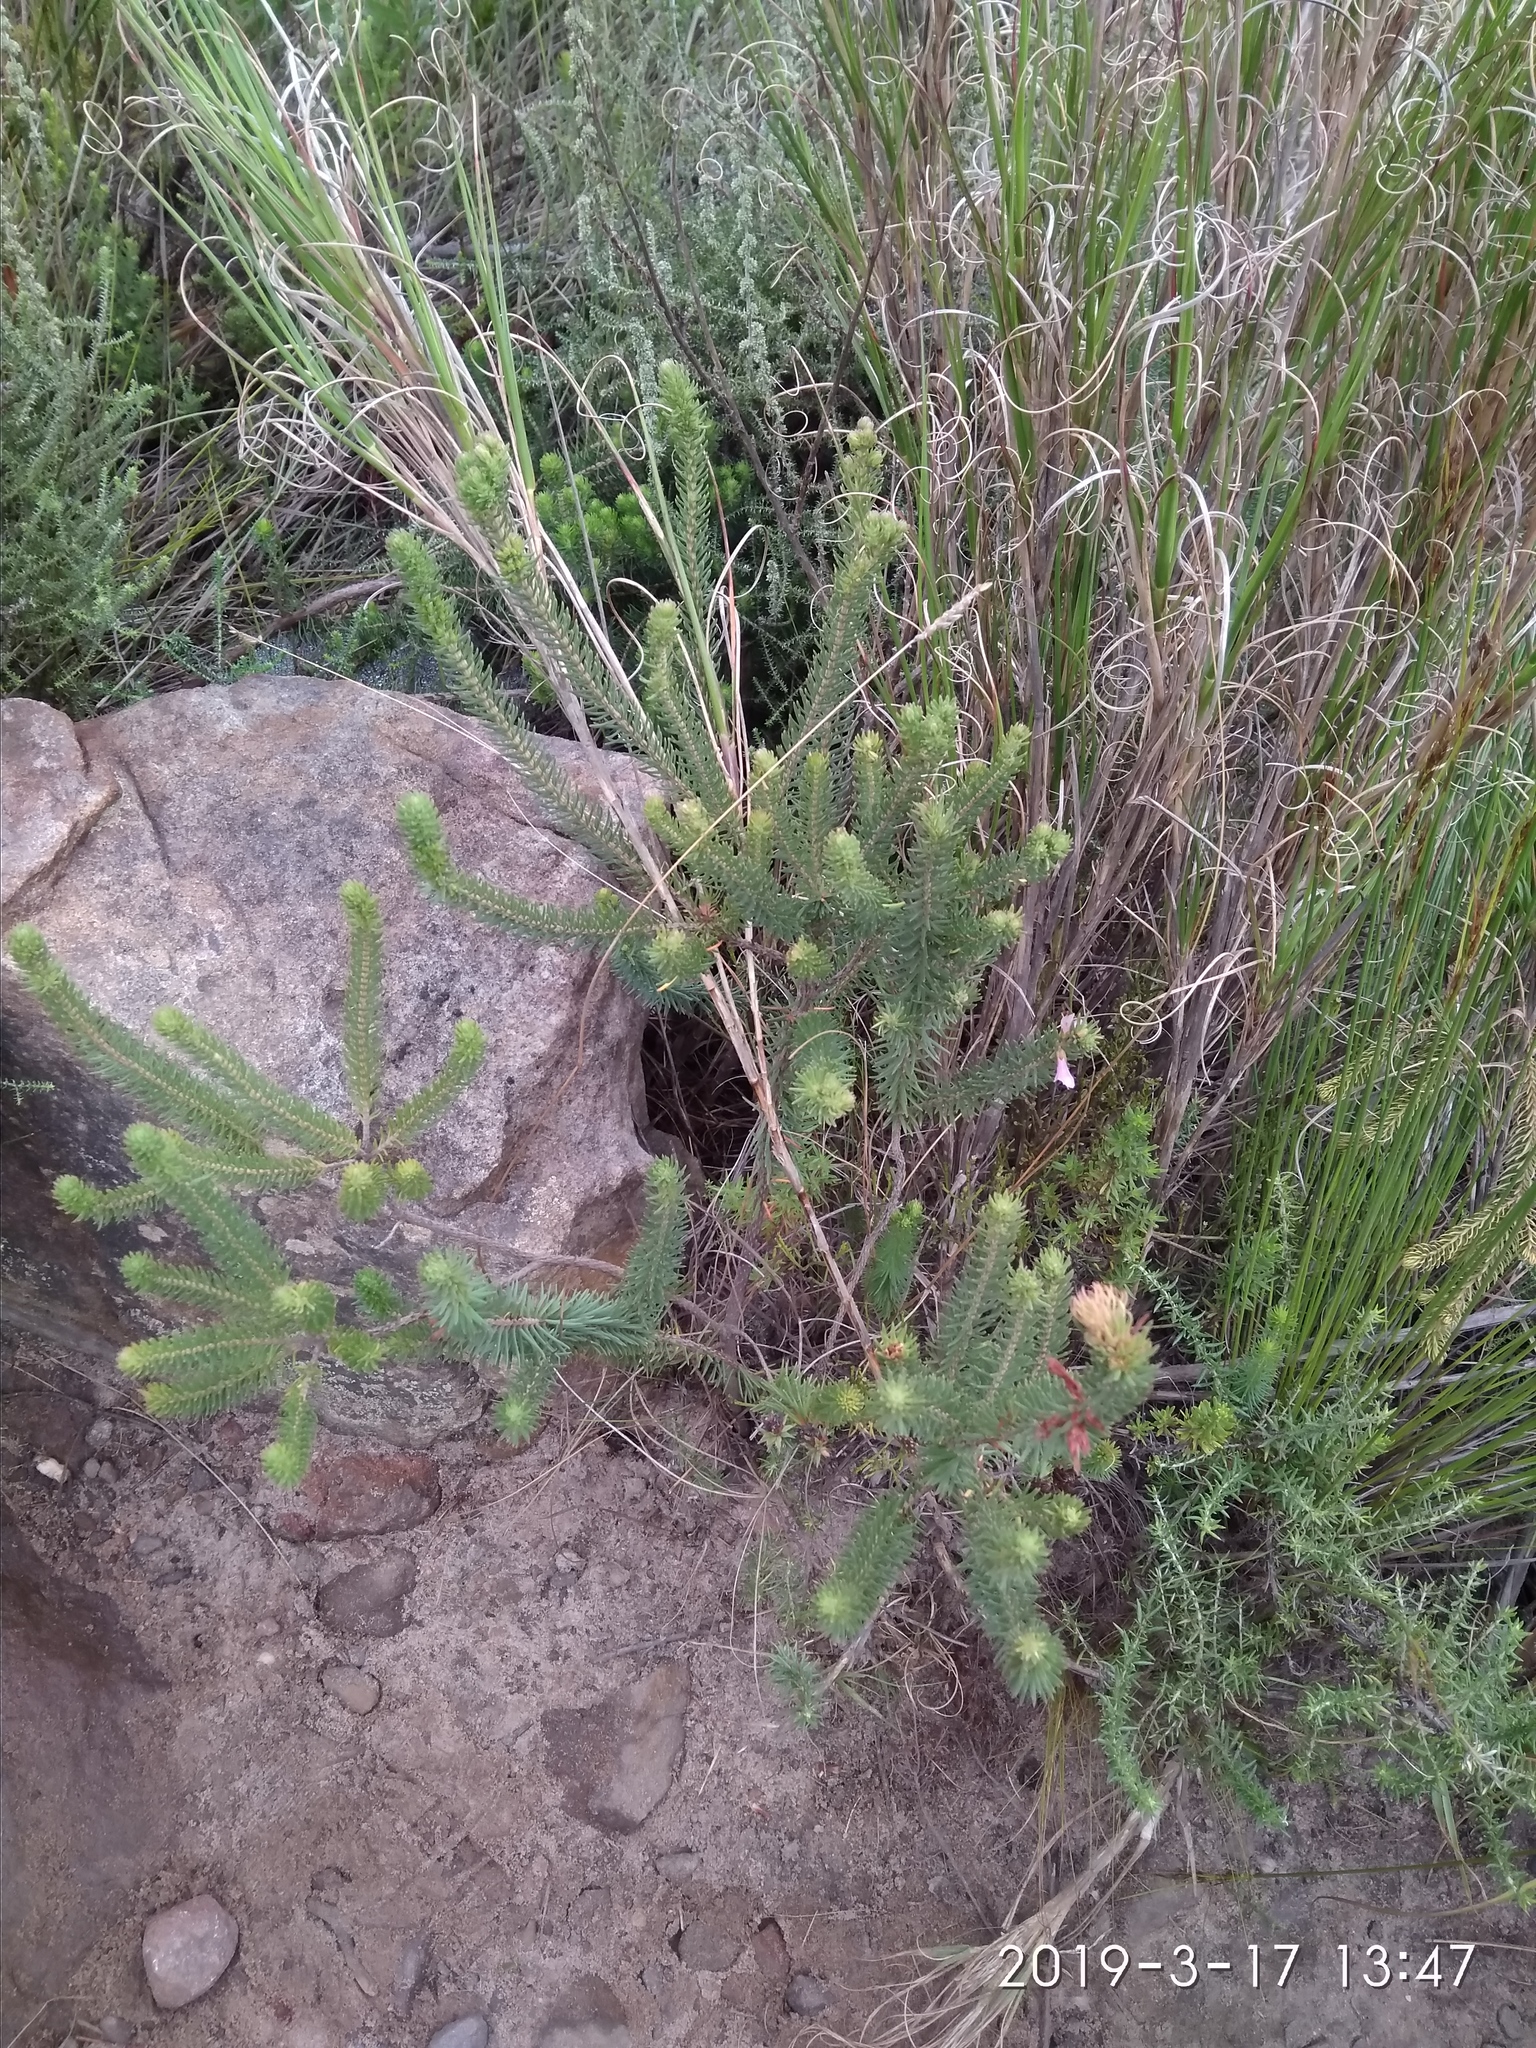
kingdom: Plantae
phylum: Tracheophyta
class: Magnoliopsida
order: Ericales
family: Ericaceae
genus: Erica
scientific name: Erica abietina
